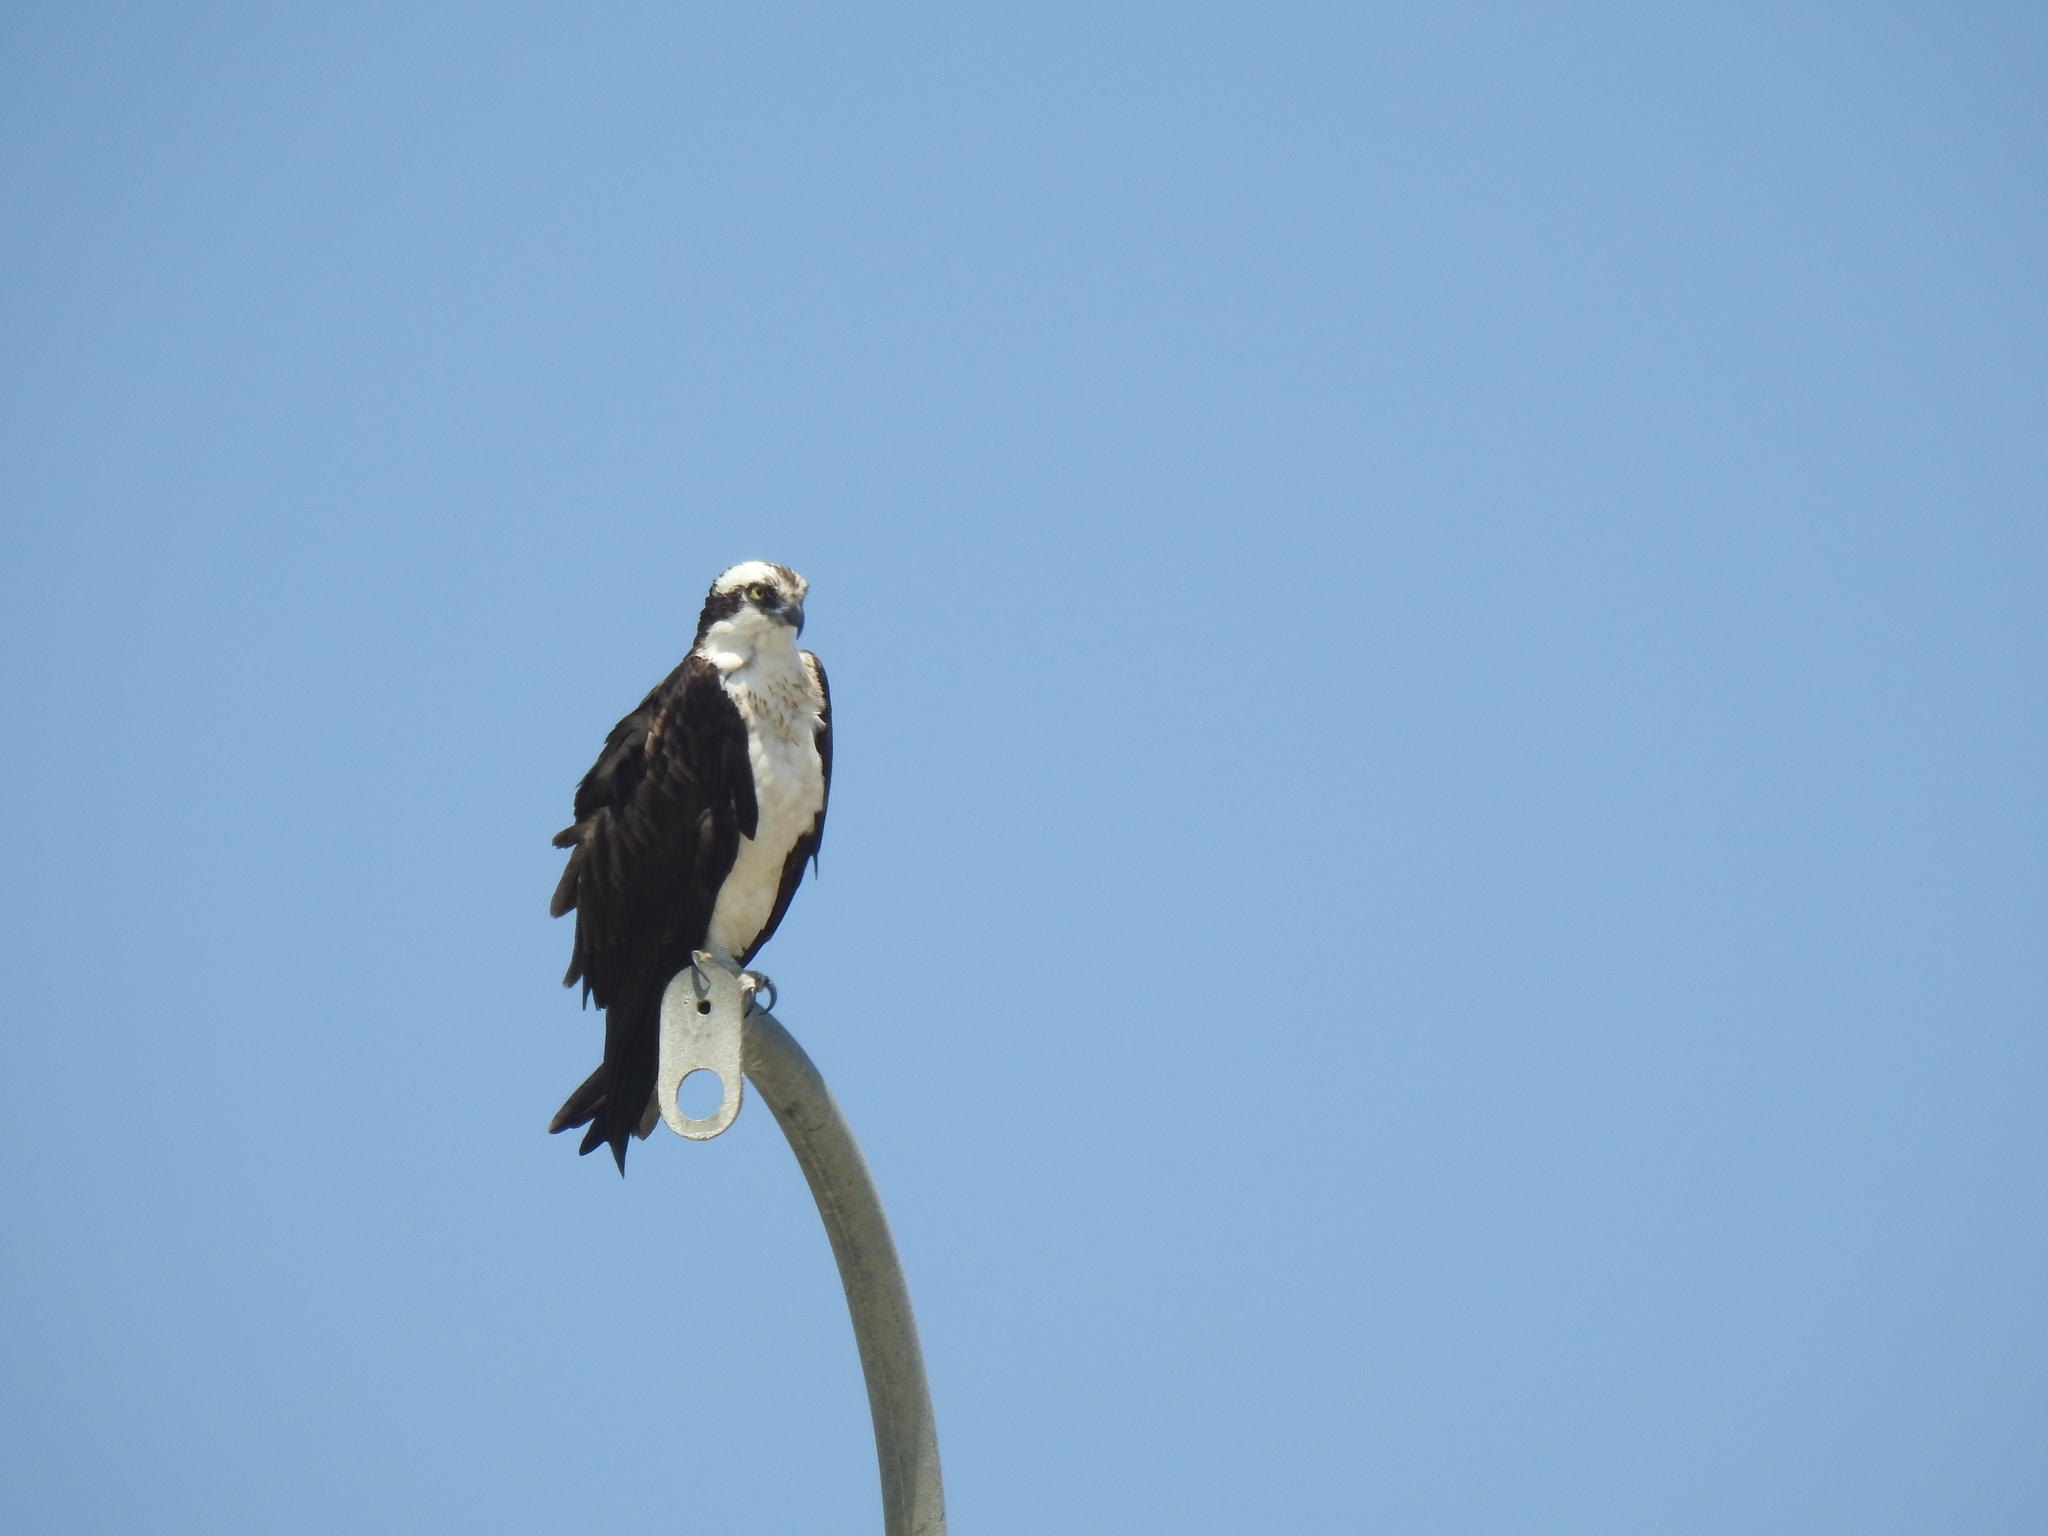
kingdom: Animalia
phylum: Chordata
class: Aves
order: Accipitriformes
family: Pandionidae
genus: Pandion
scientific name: Pandion haliaetus
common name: Osprey
